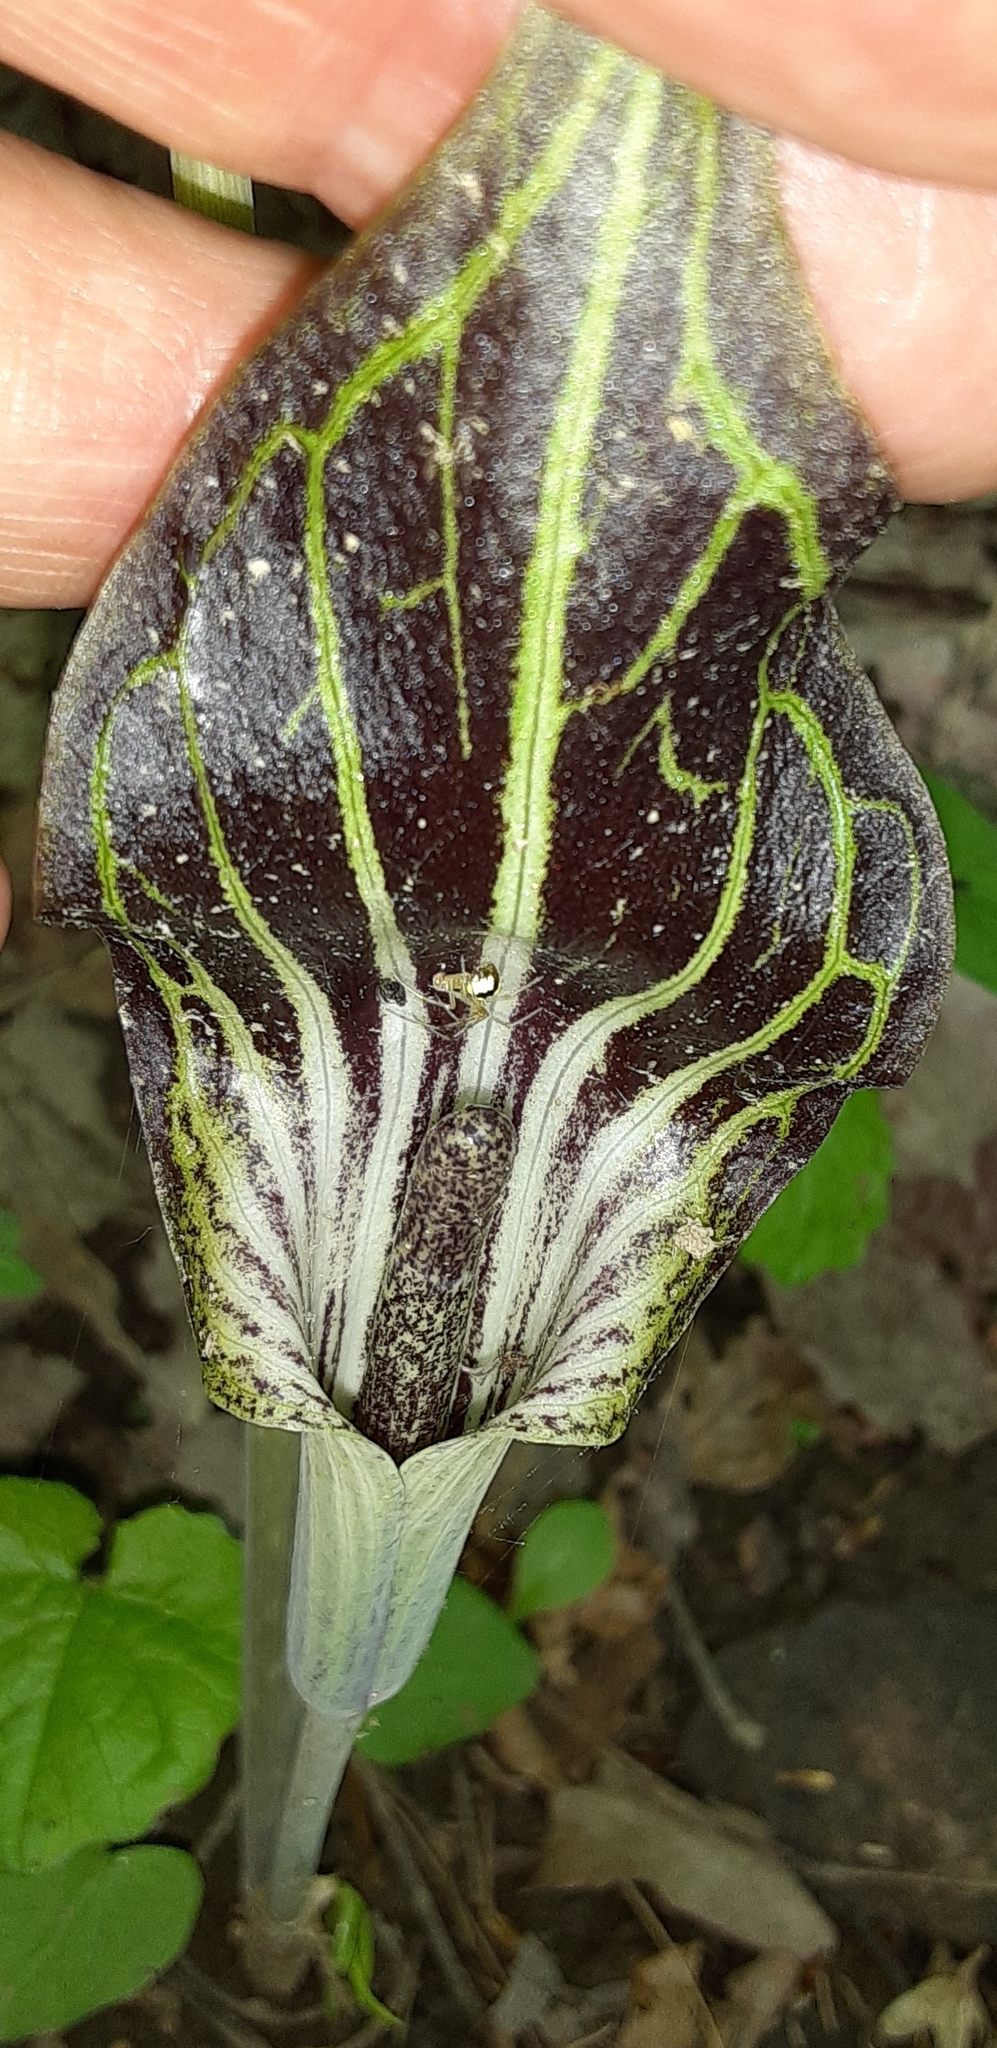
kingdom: Plantae
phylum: Tracheophyta
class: Liliopsida
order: Alismatales
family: Araceae
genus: Arisaema
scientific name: Arisaema triphyllum
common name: Jack-in-the-pulpit
